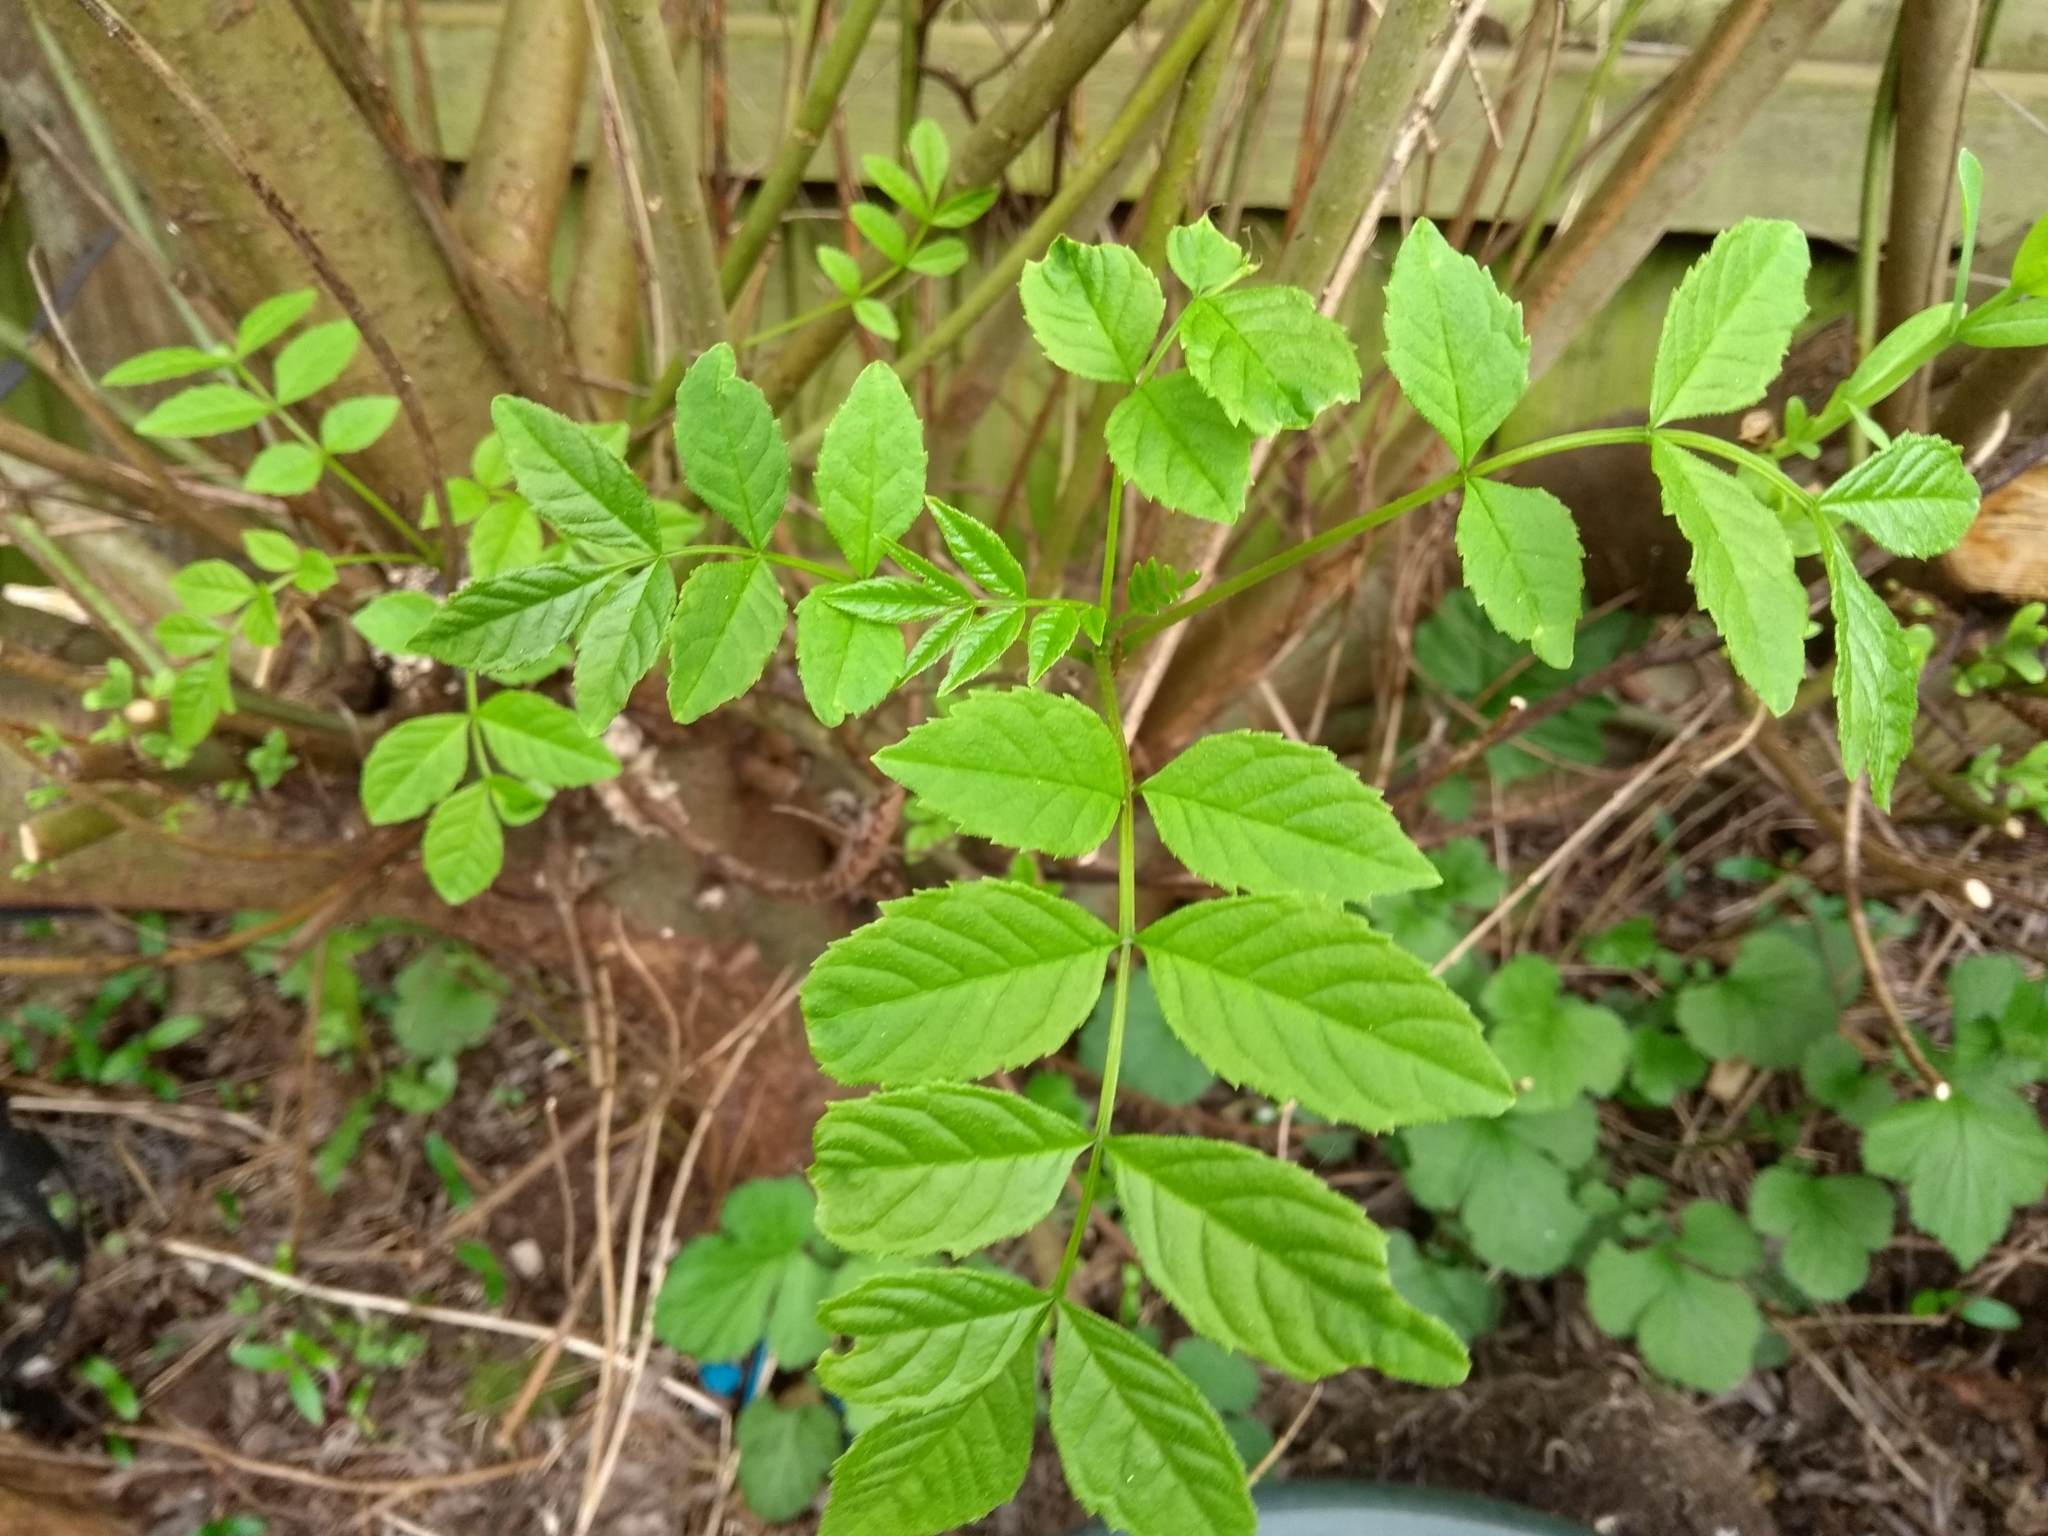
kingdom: Plantae
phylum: Tracheophyta
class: Magnoliopsida
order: Lamiales
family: Oleaceae
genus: Fraxinus
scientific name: Fraxinus excelsior
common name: European ash
